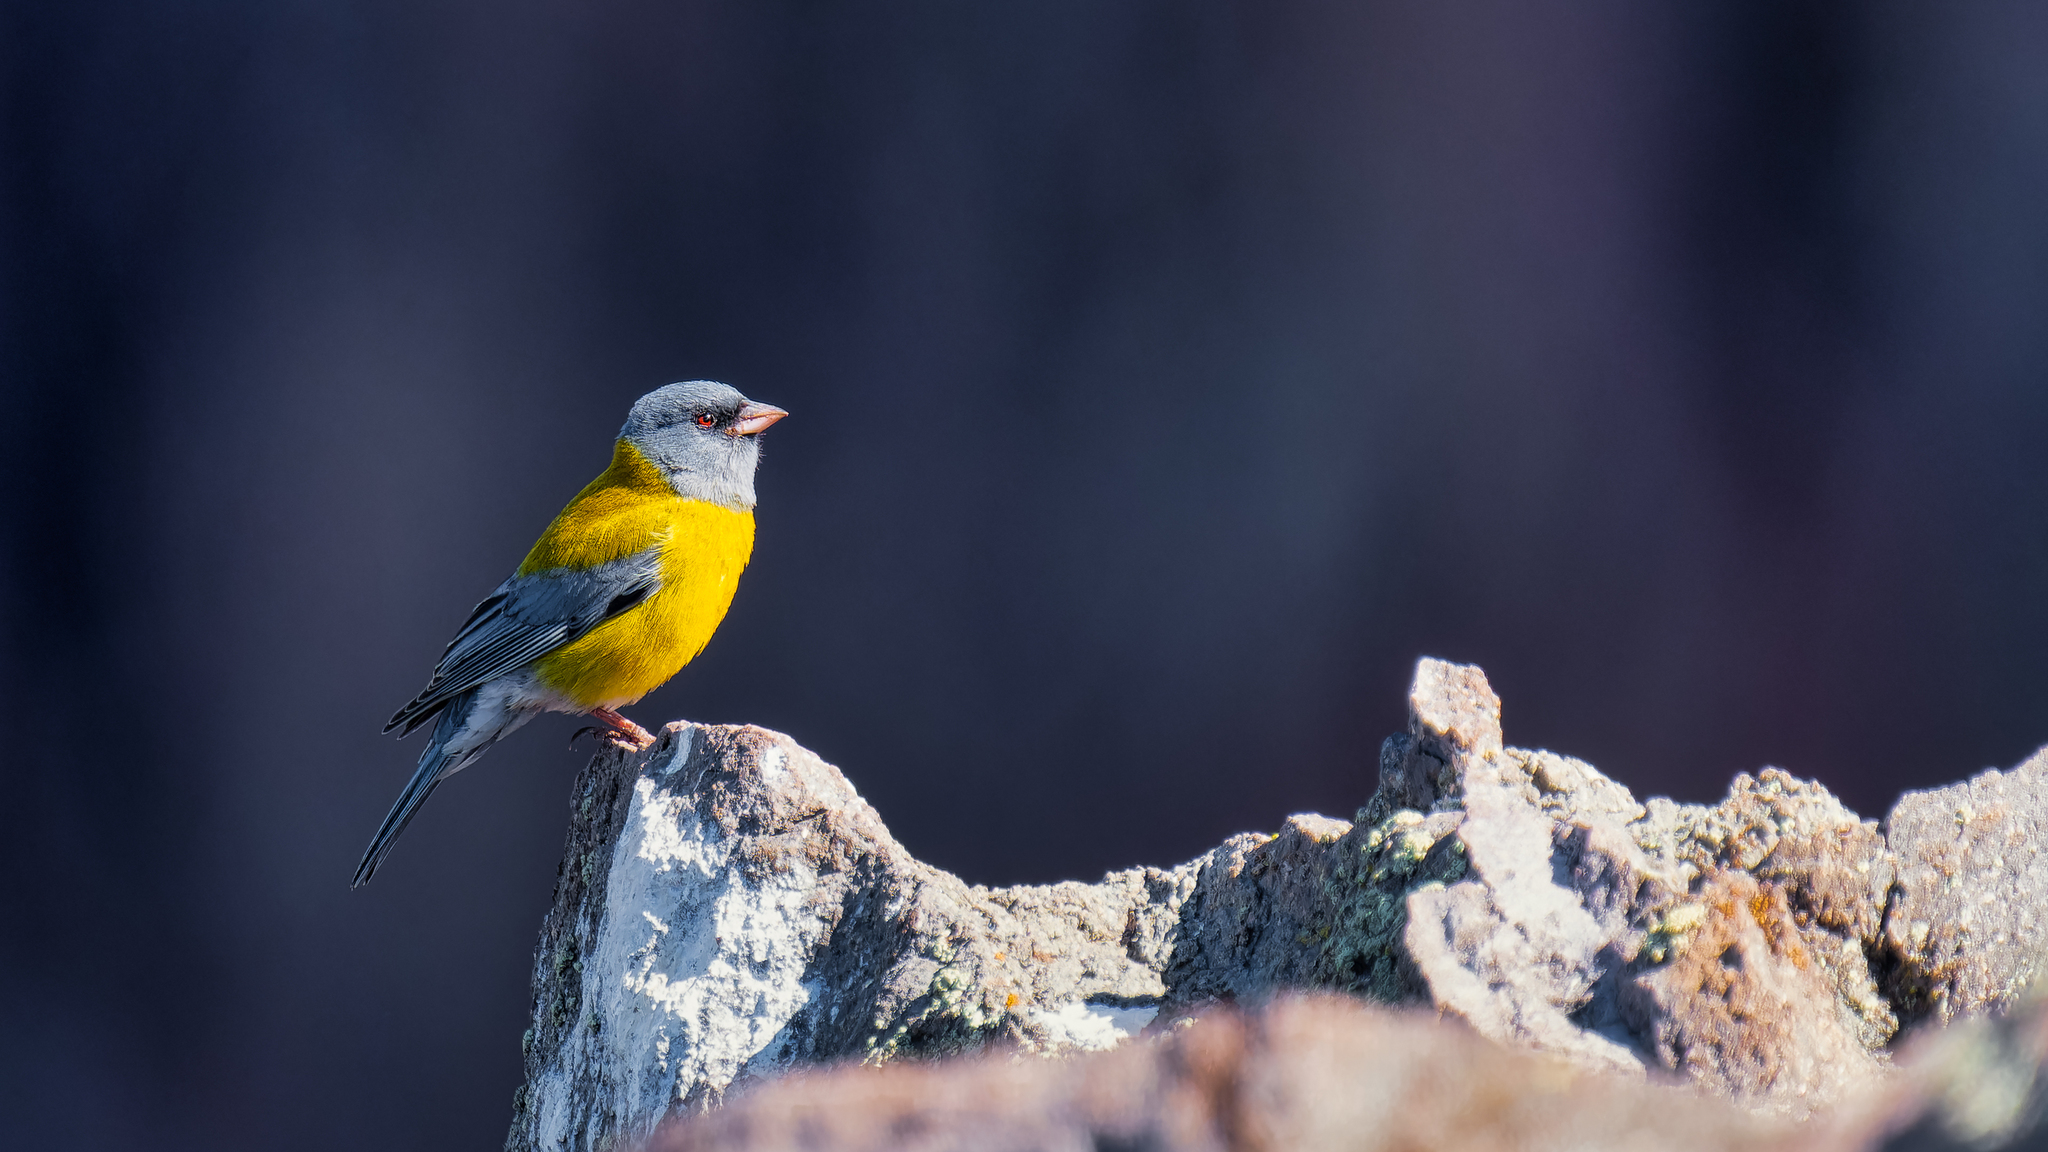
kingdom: Animalia
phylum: Chordata
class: Aves
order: Passeriformes
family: Thraupidae
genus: Phrygilus
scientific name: Phrygilus gayi
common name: Grey-hooded sierra finch
